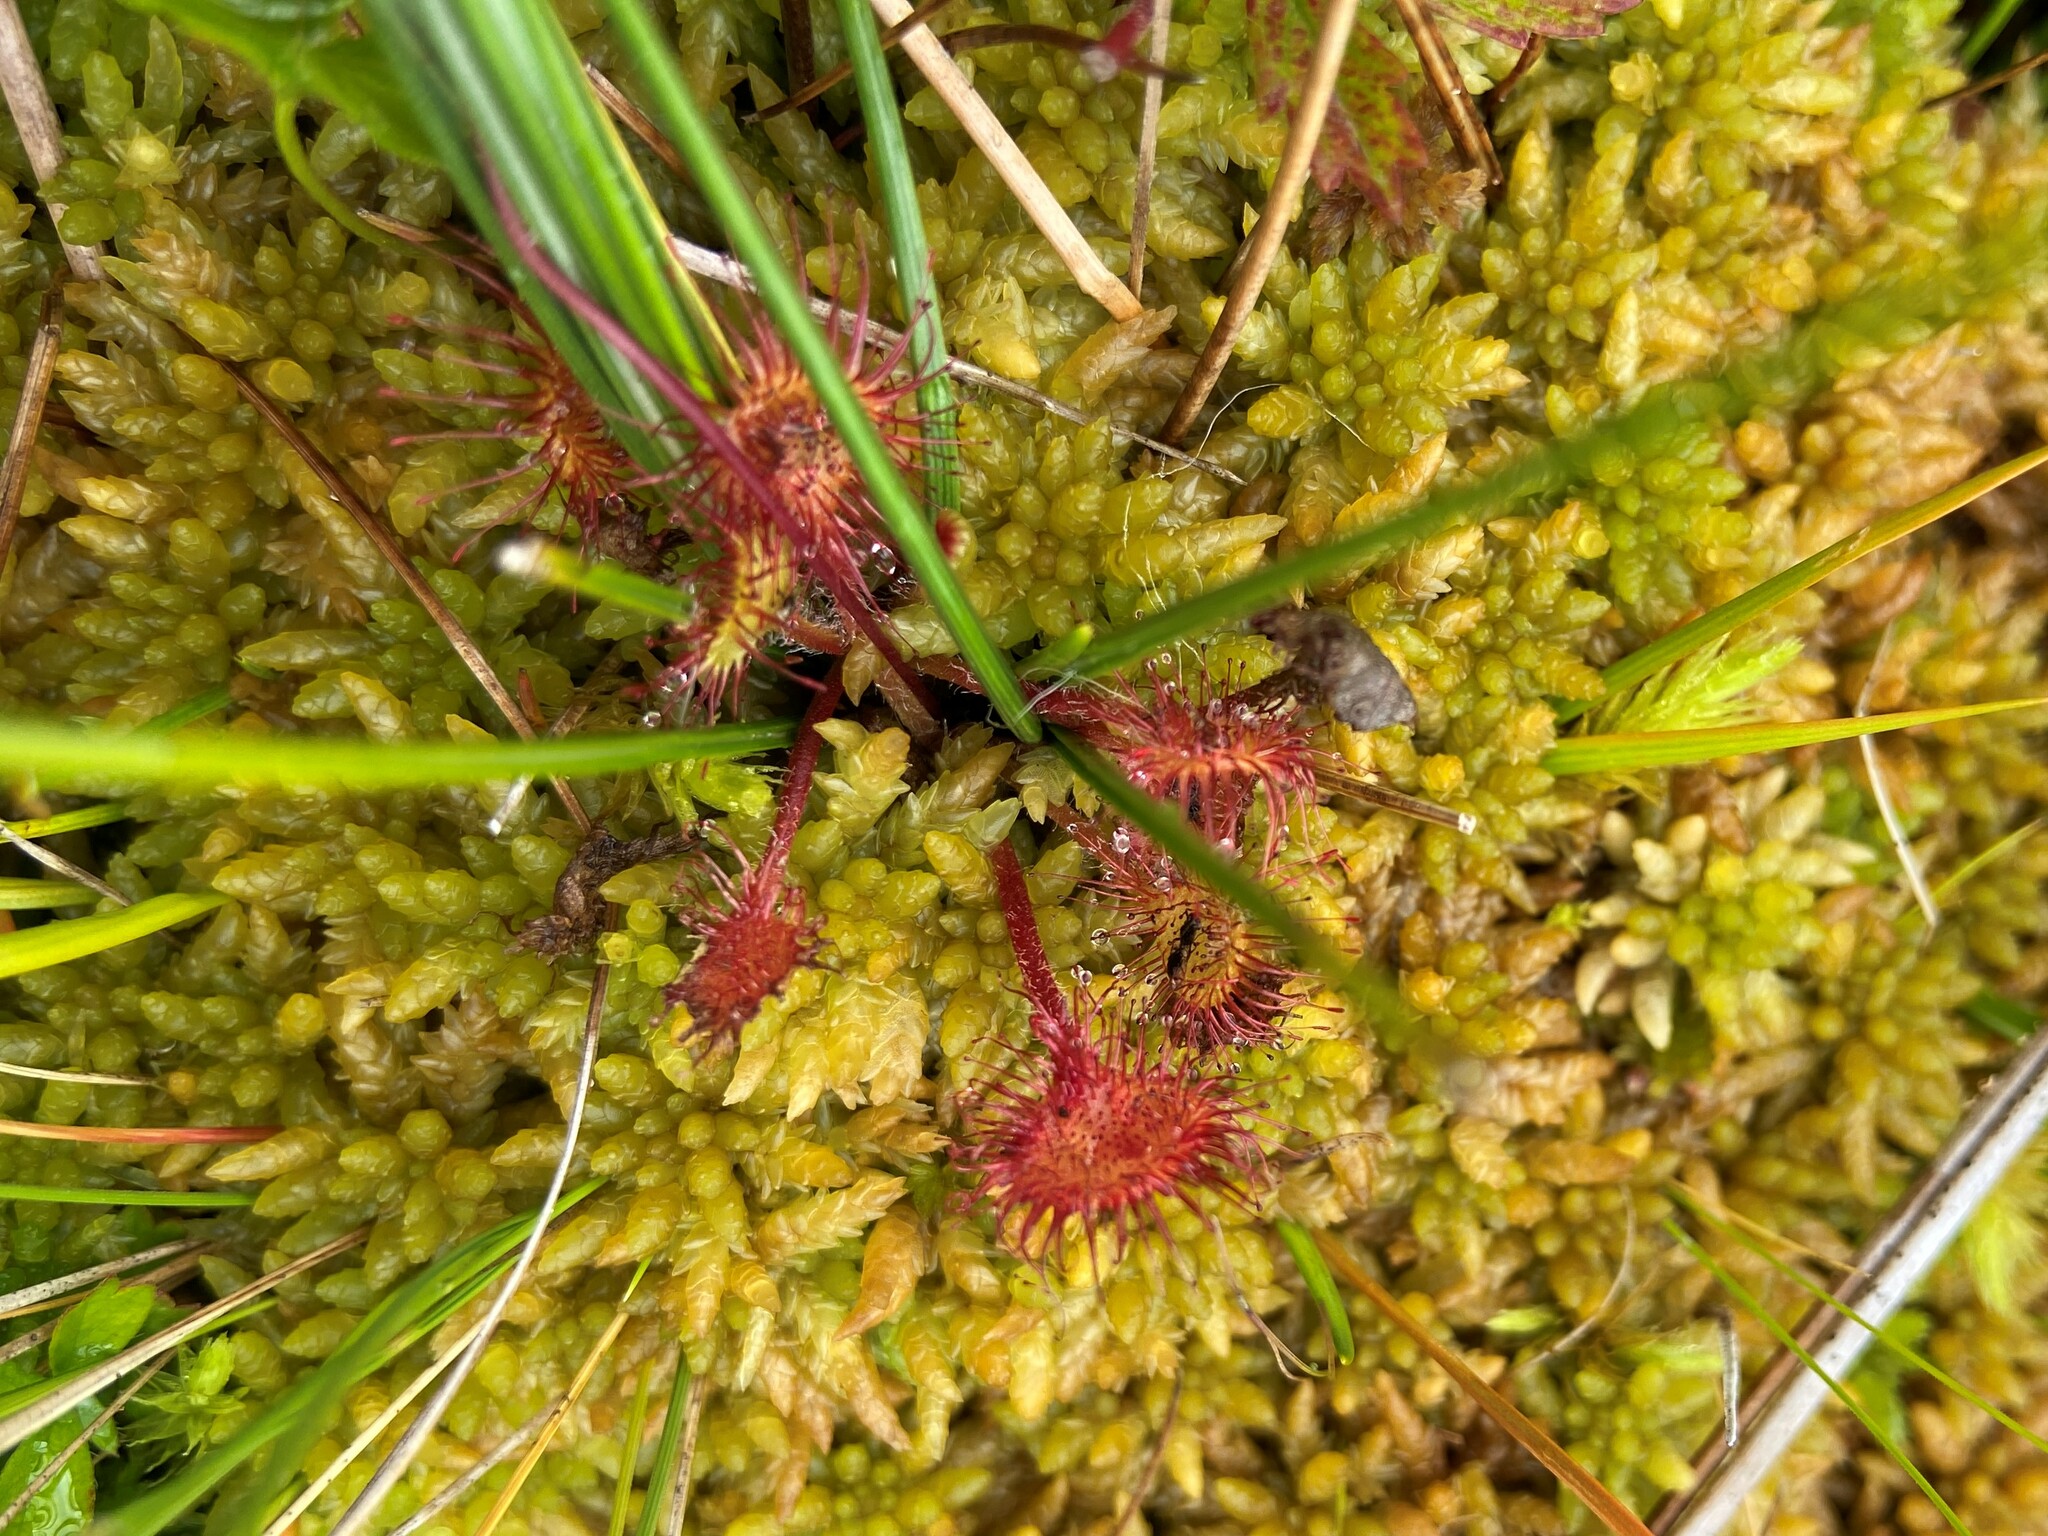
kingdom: Plantae
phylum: Tracheophyta
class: Magnoliopsida
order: Caryophyllales
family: Droseraceae
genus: Drosera
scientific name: Drosera rotundifolia
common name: Round-leaved sundew
